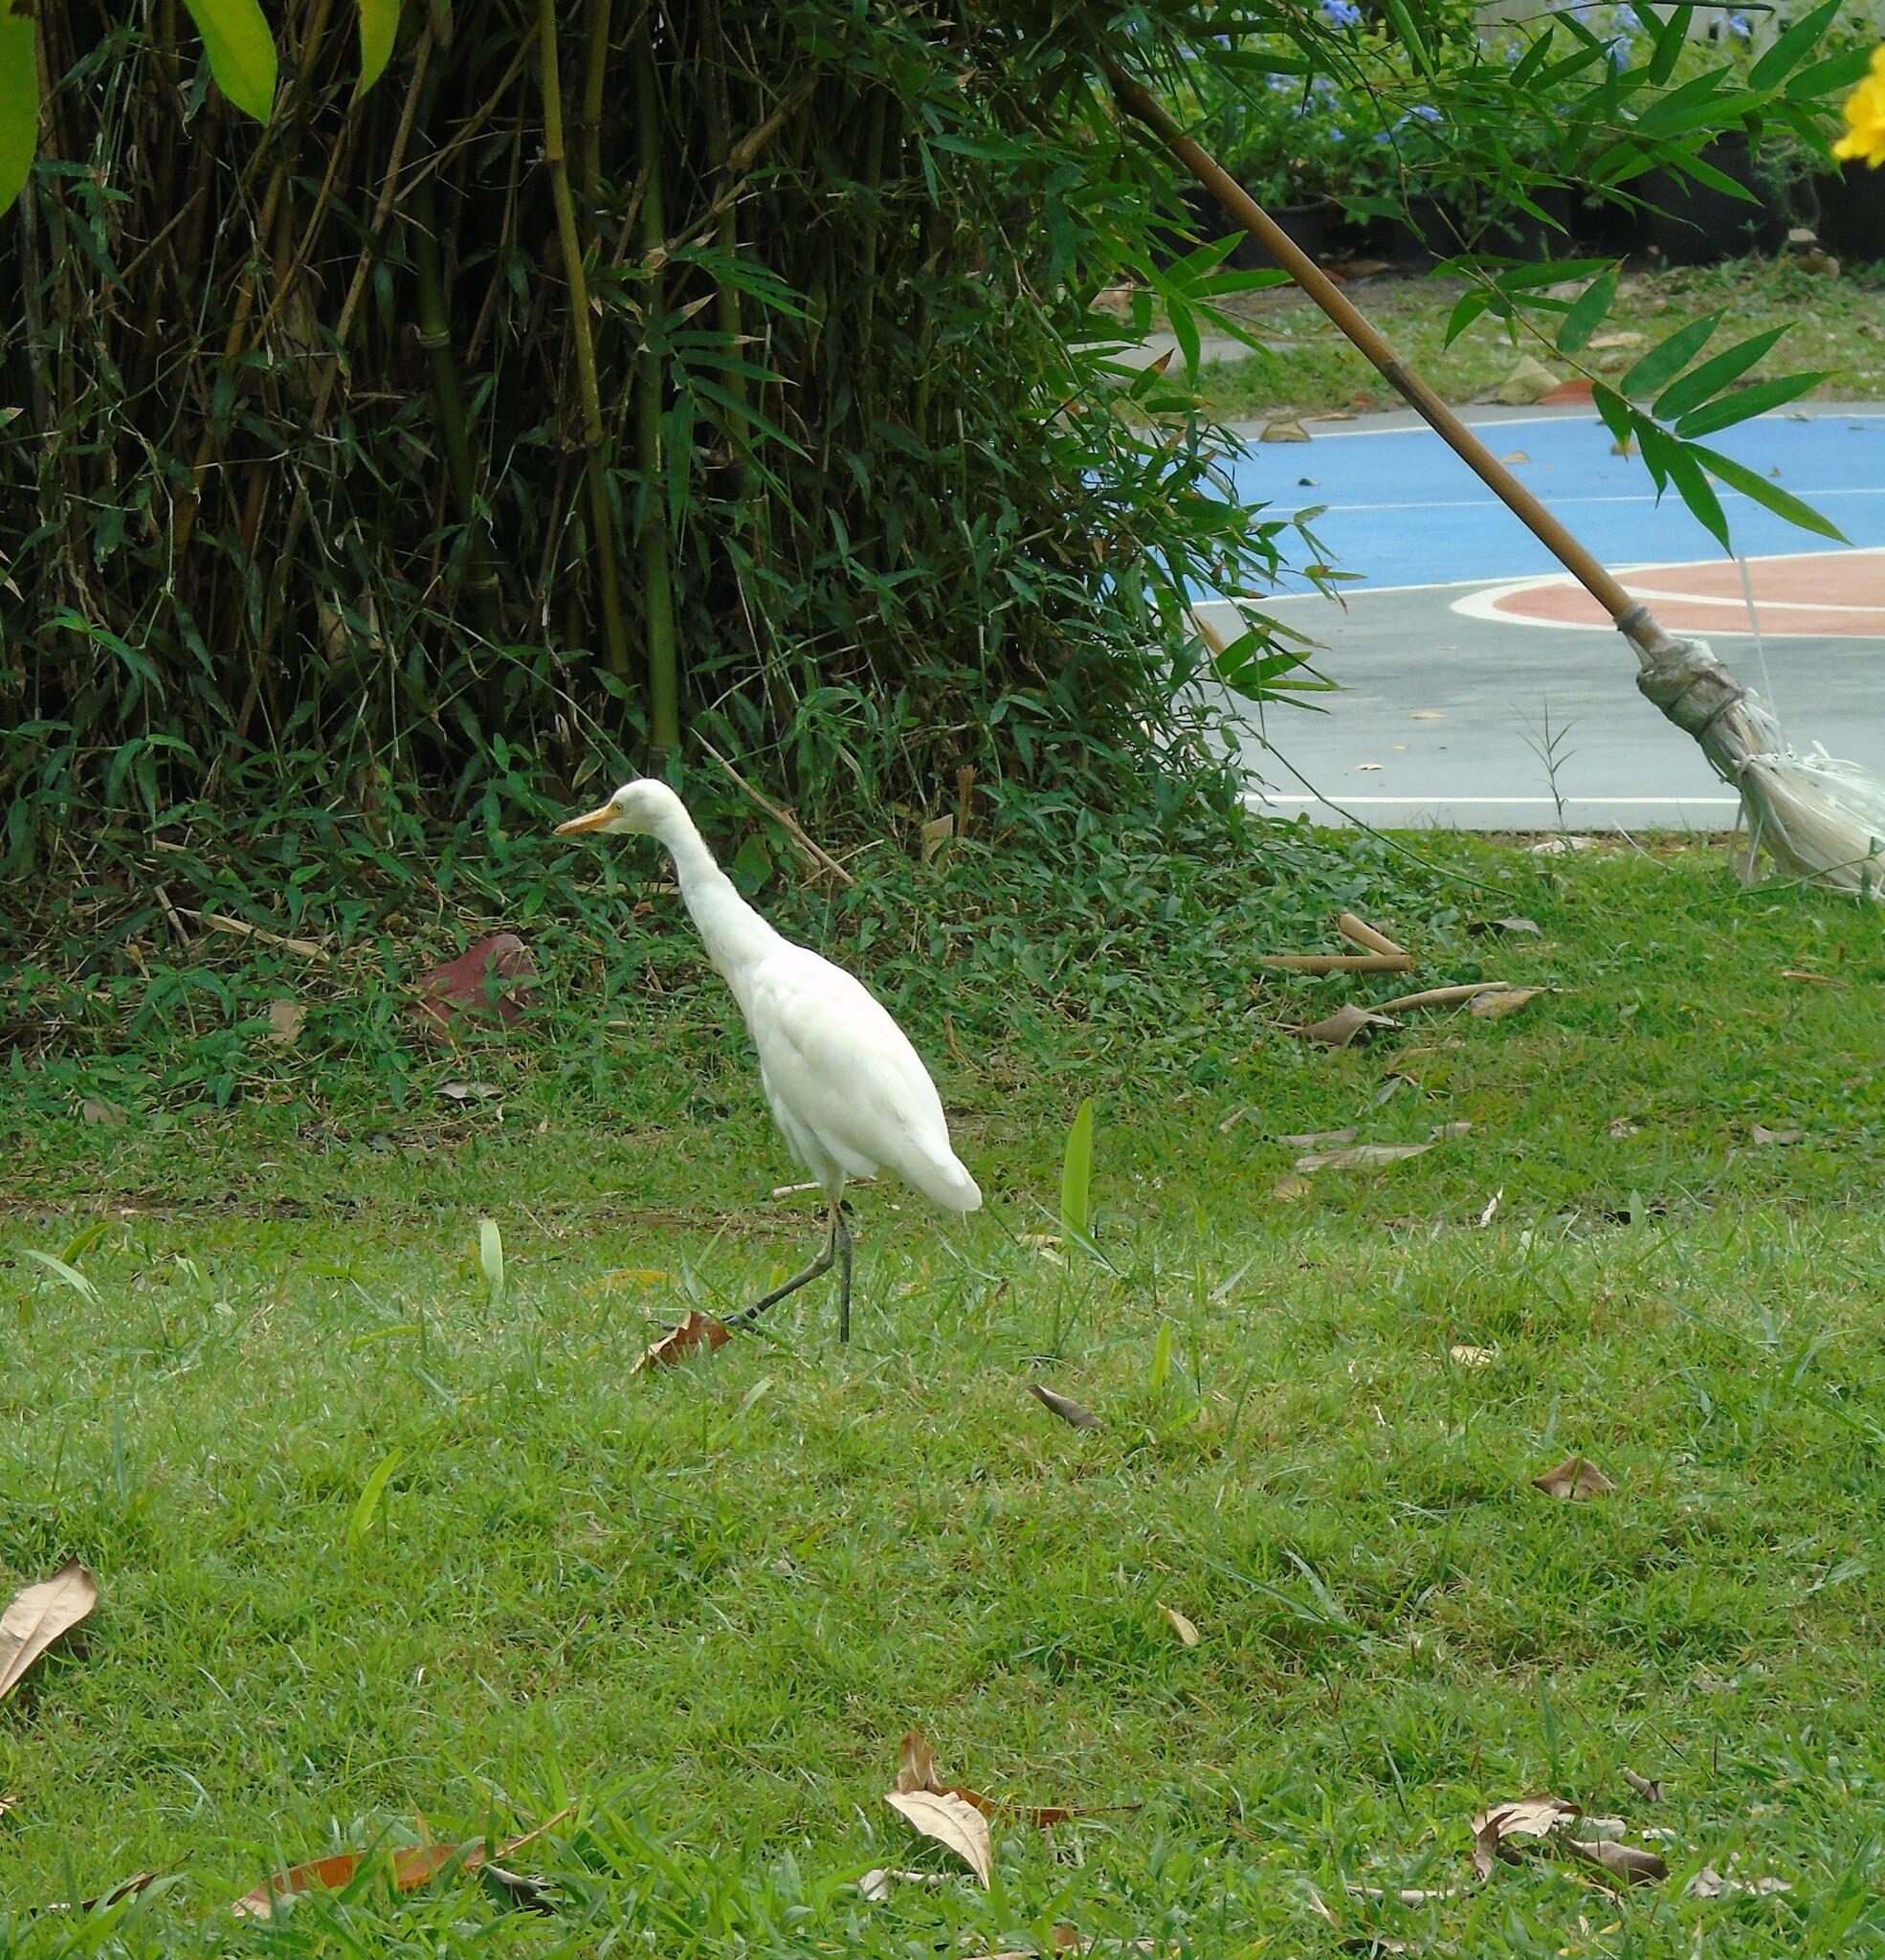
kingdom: Animalia
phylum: Chordata
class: Aves
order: Pelecaniformes
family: Ardeidae
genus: Bubulcus
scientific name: Bubulcus coromandus
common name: Eastern cattle egret
